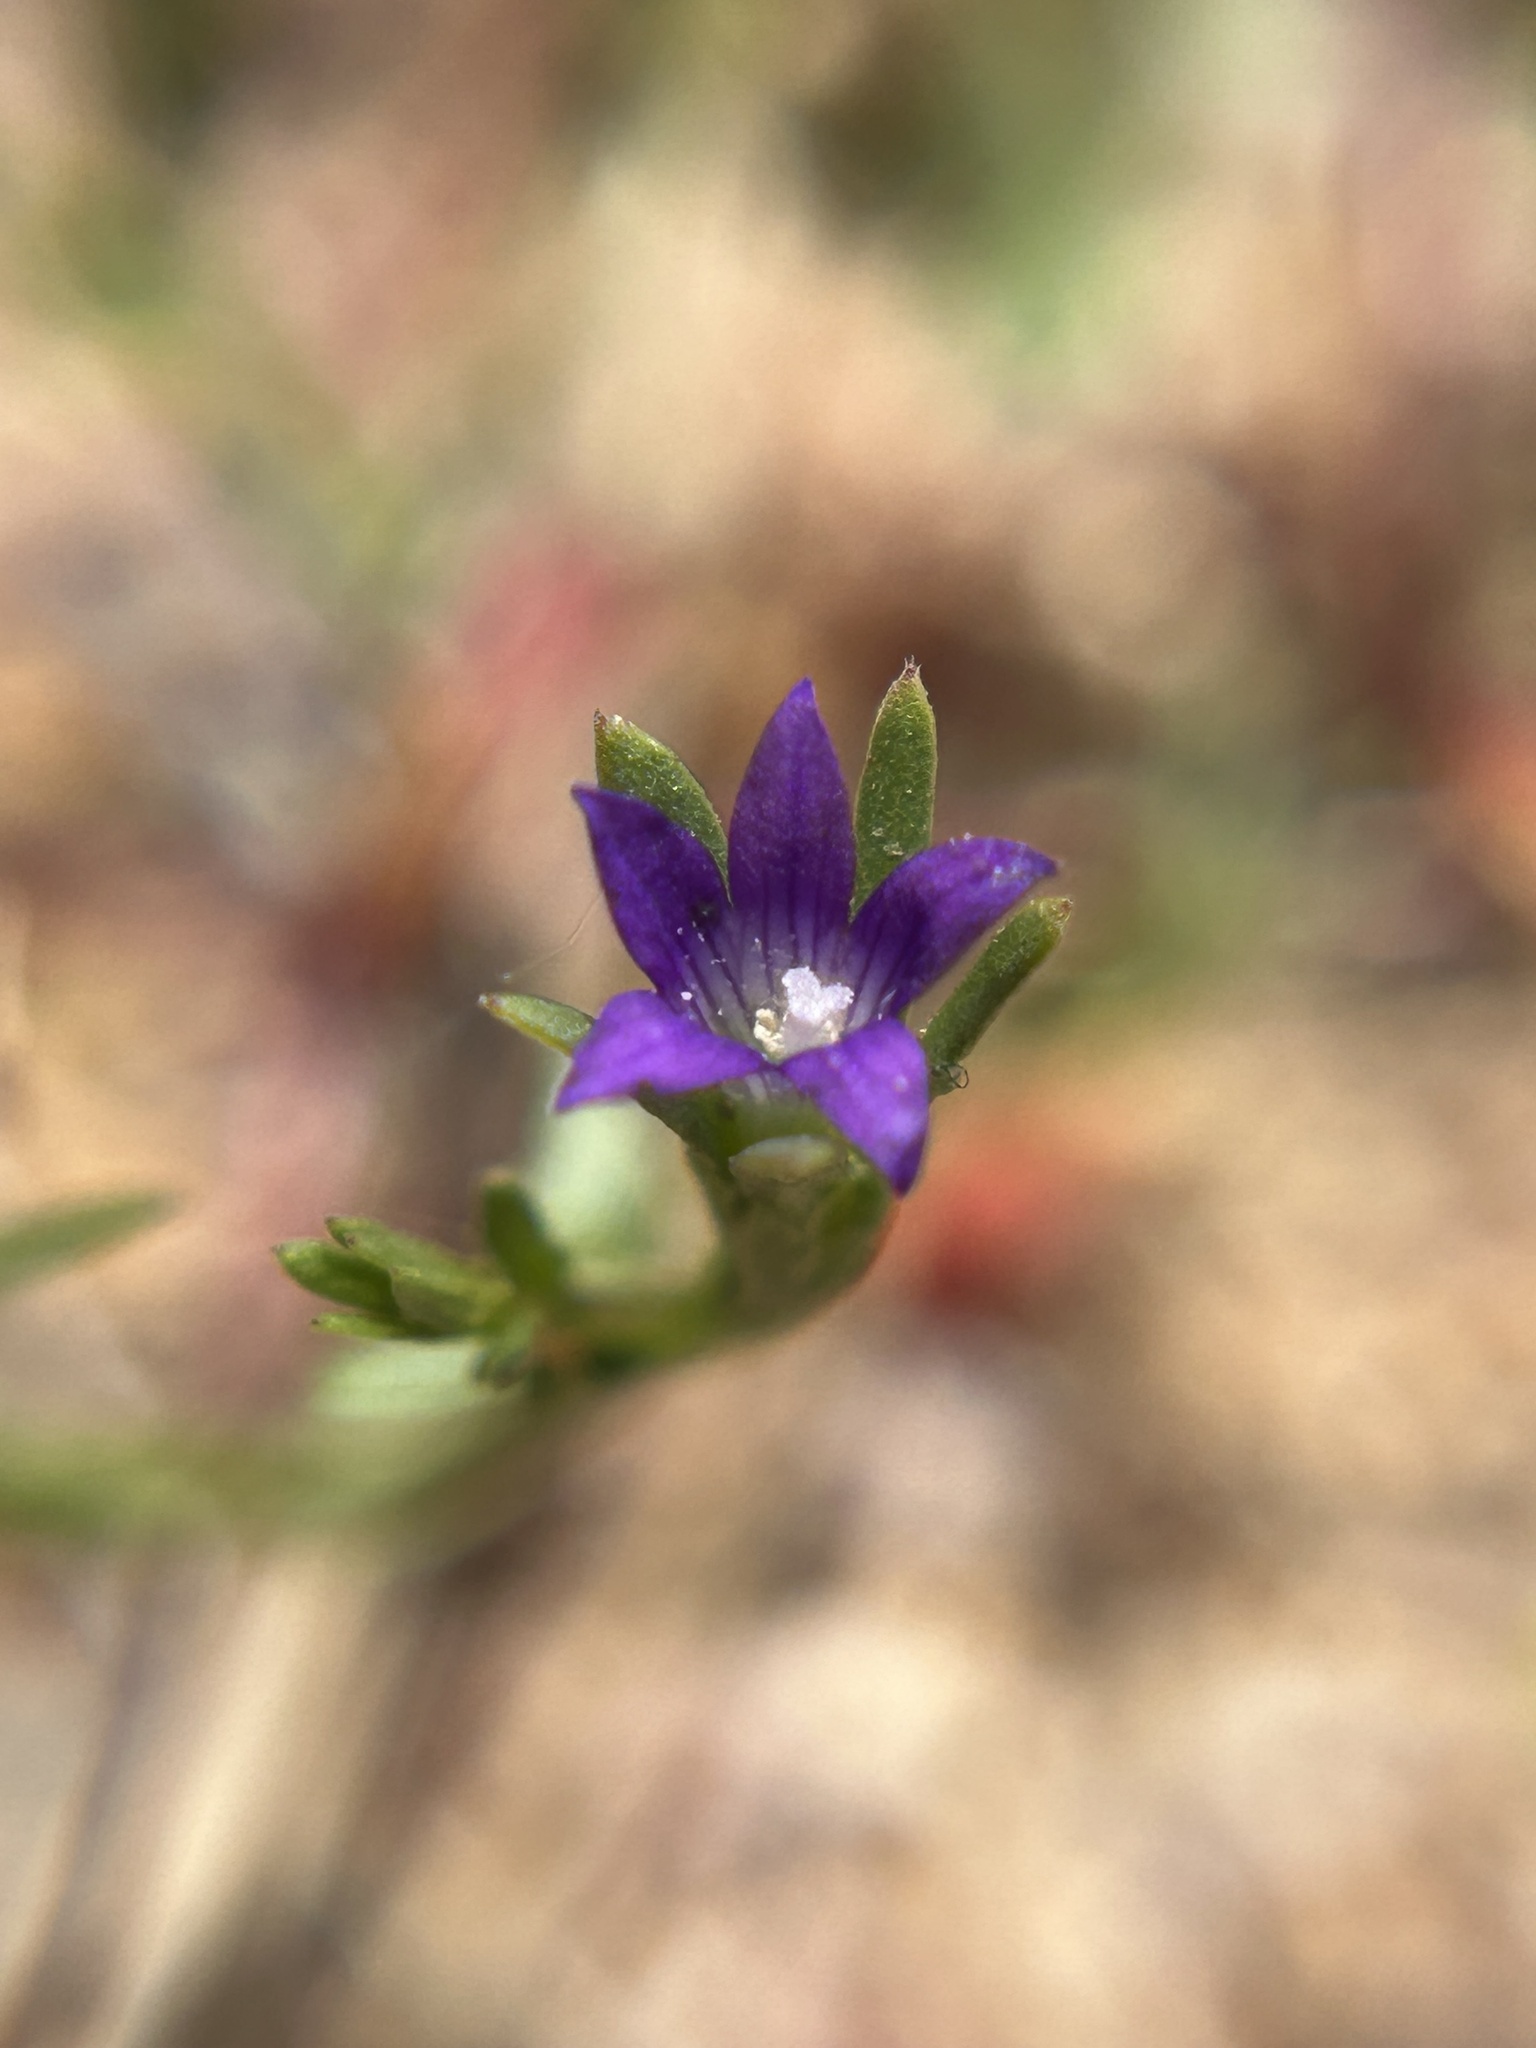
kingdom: Plantae
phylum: Tracheophyta
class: Magnoliopsida
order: Asterales
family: Campanulaceae
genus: Githopsis
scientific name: Githopsis specularioides
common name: Common bluecup
